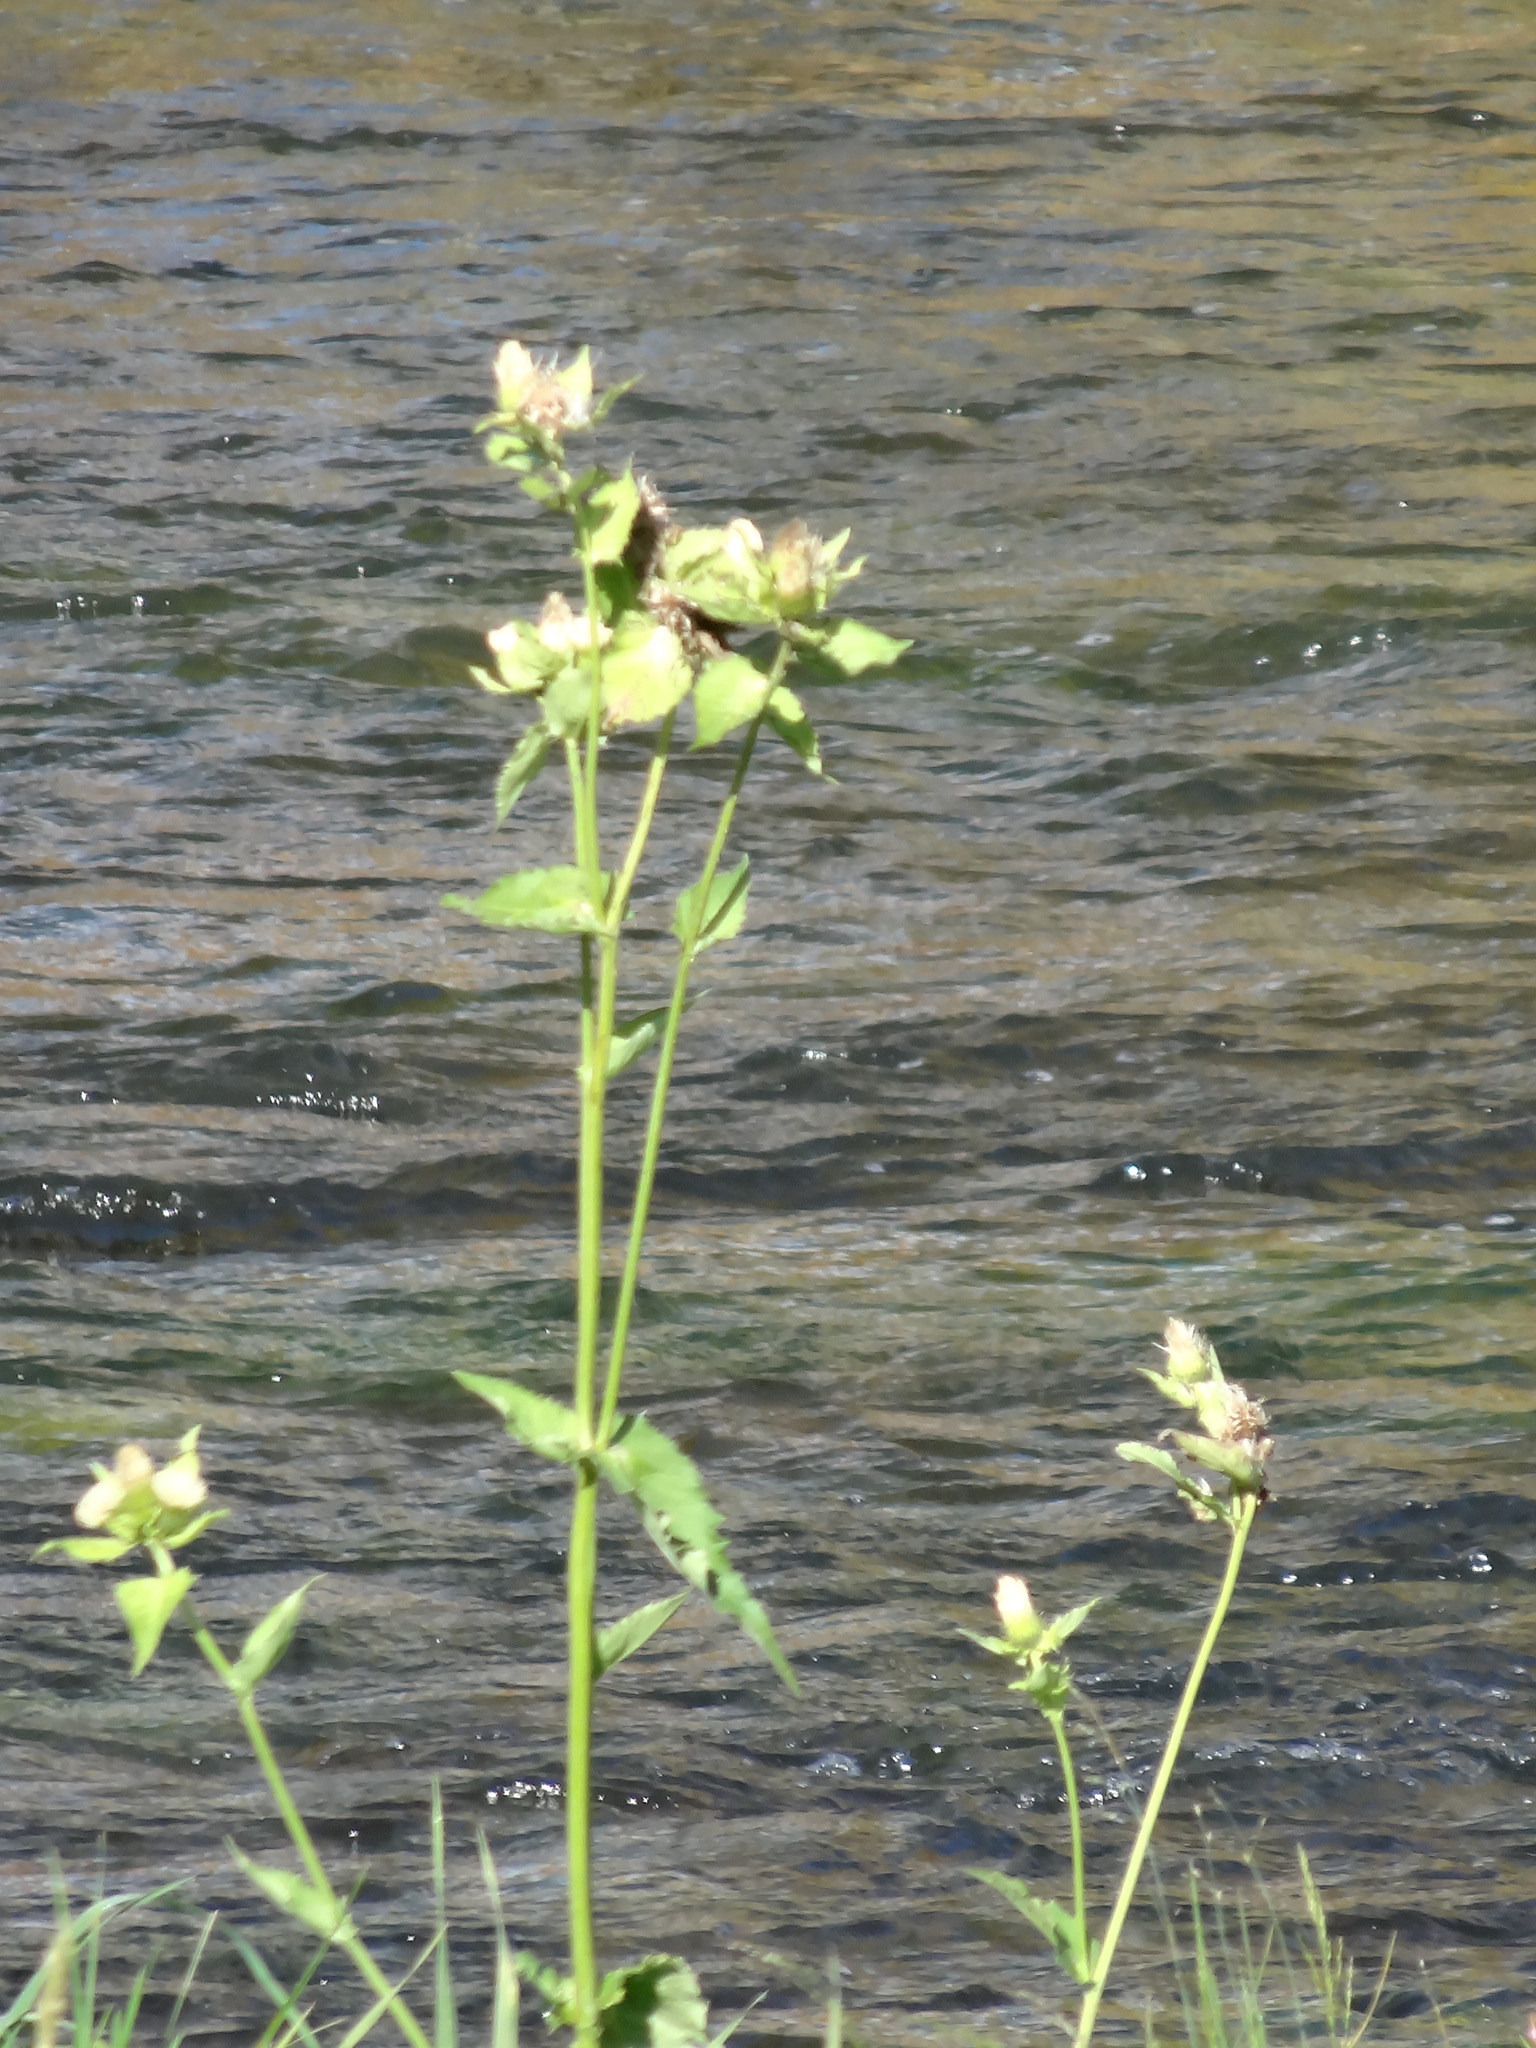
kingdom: Plantae
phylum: Tracheophyta
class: Magnoliopsida
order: Asterales
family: Asteraceae
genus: Cirsium
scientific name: Cirsium oleraceum
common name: Cabbage thistle
